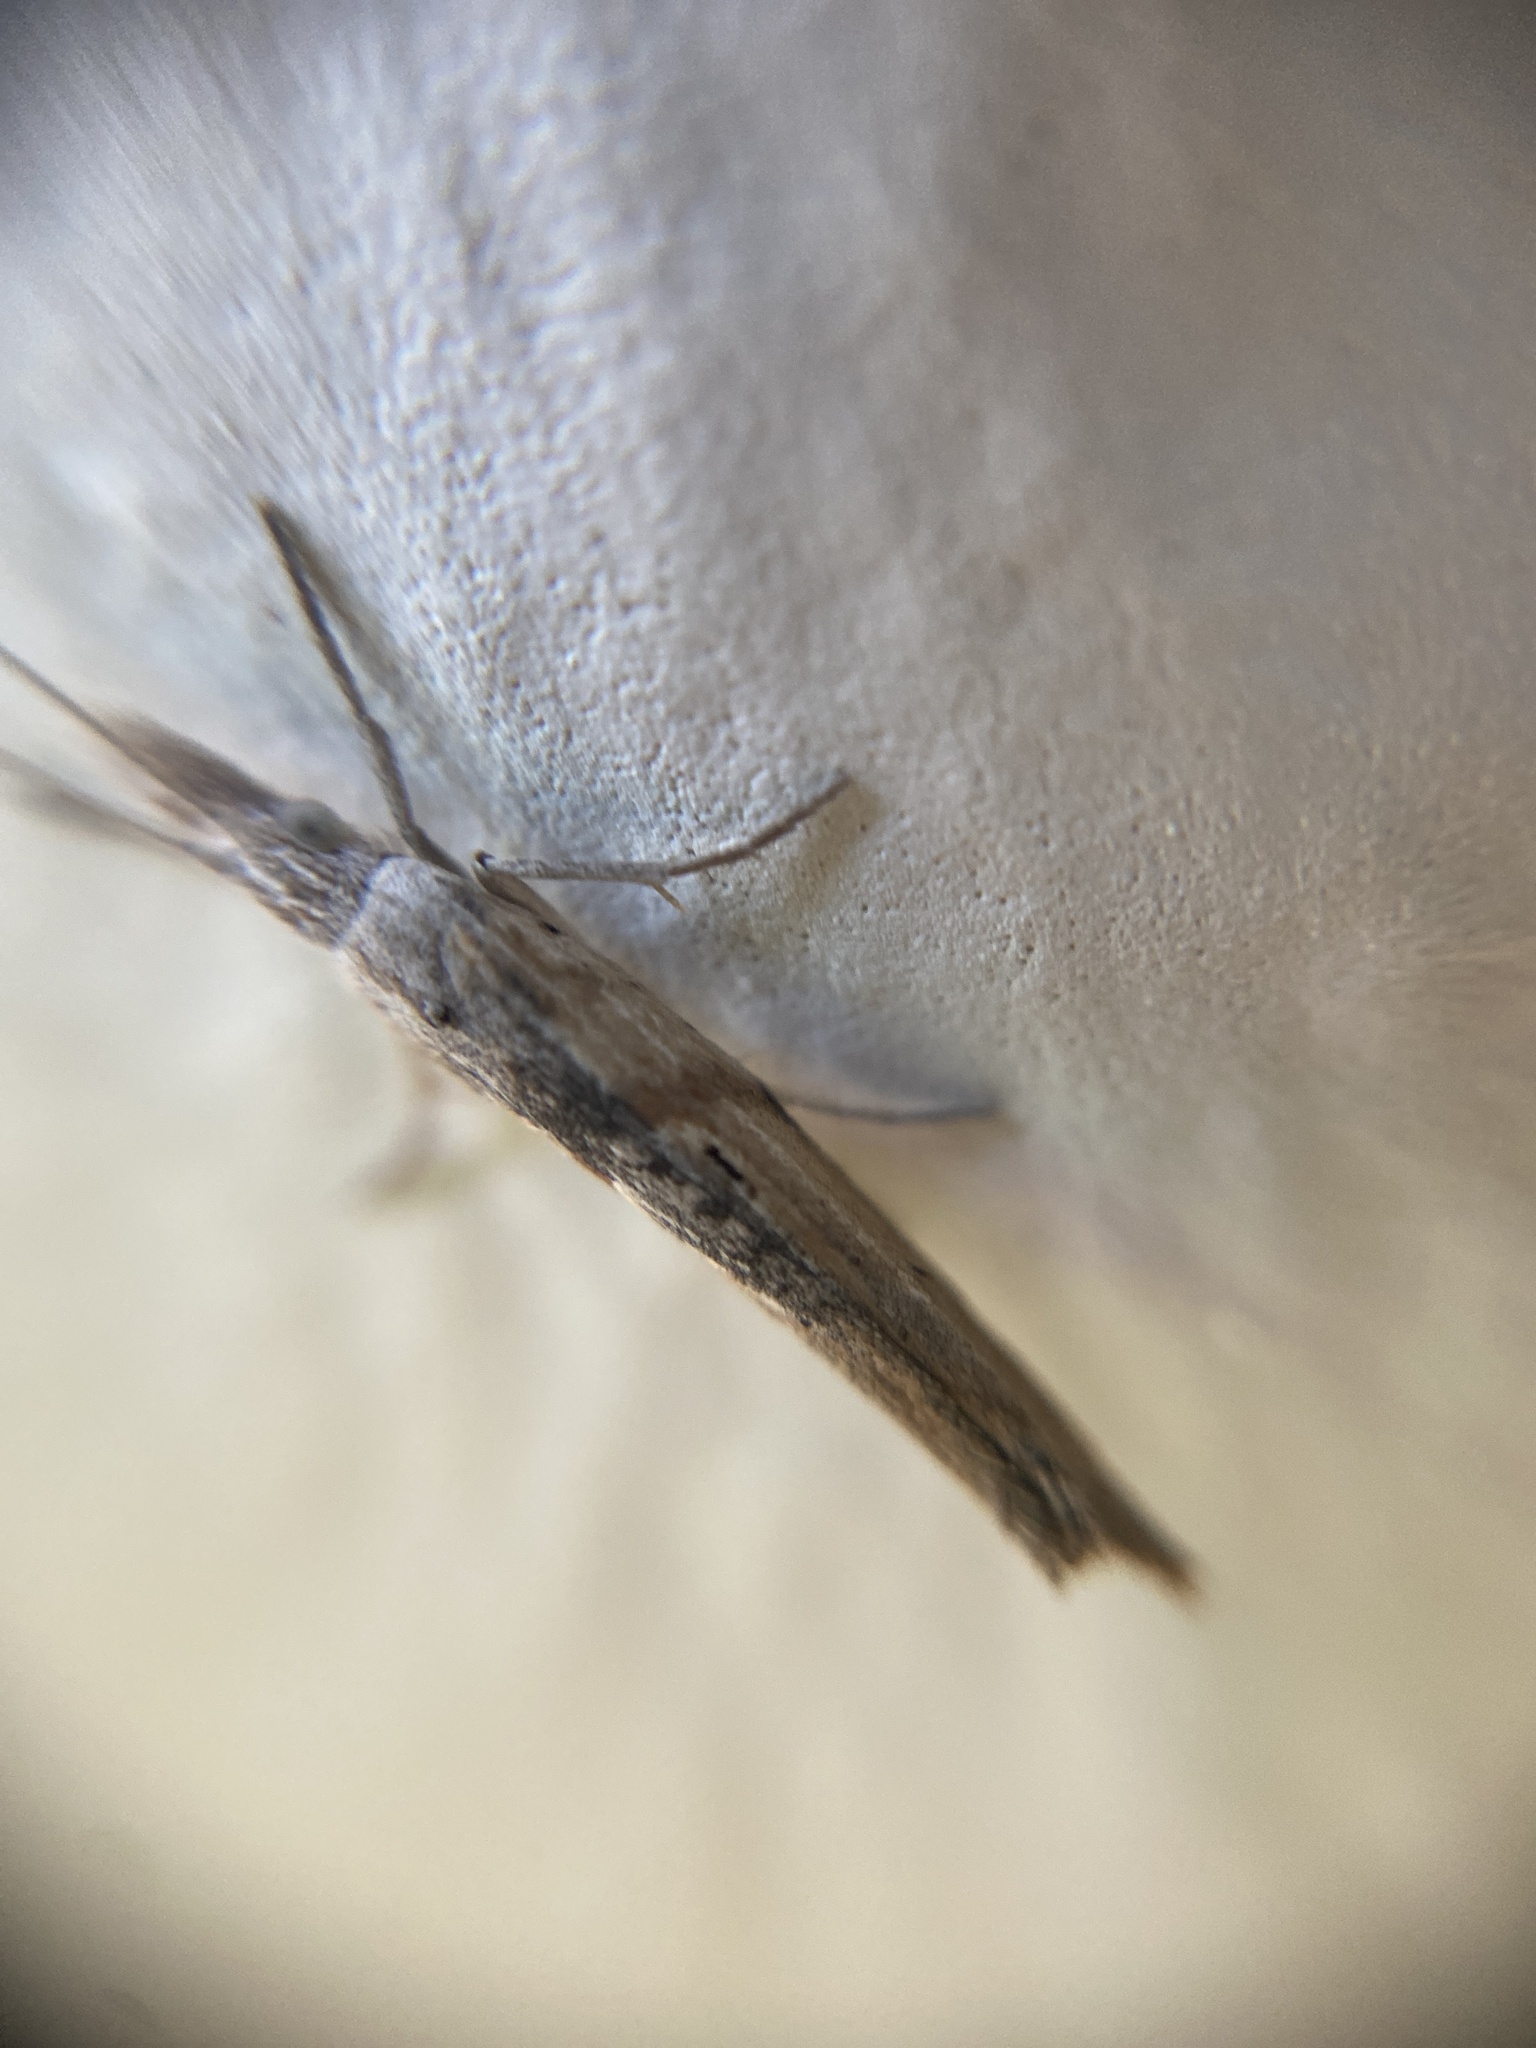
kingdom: Animalia
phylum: Arthropoda
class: Insecta
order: Lepidoptera
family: Ypsolophidae
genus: Ypsolopha
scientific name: Ypsolopha instabilella
